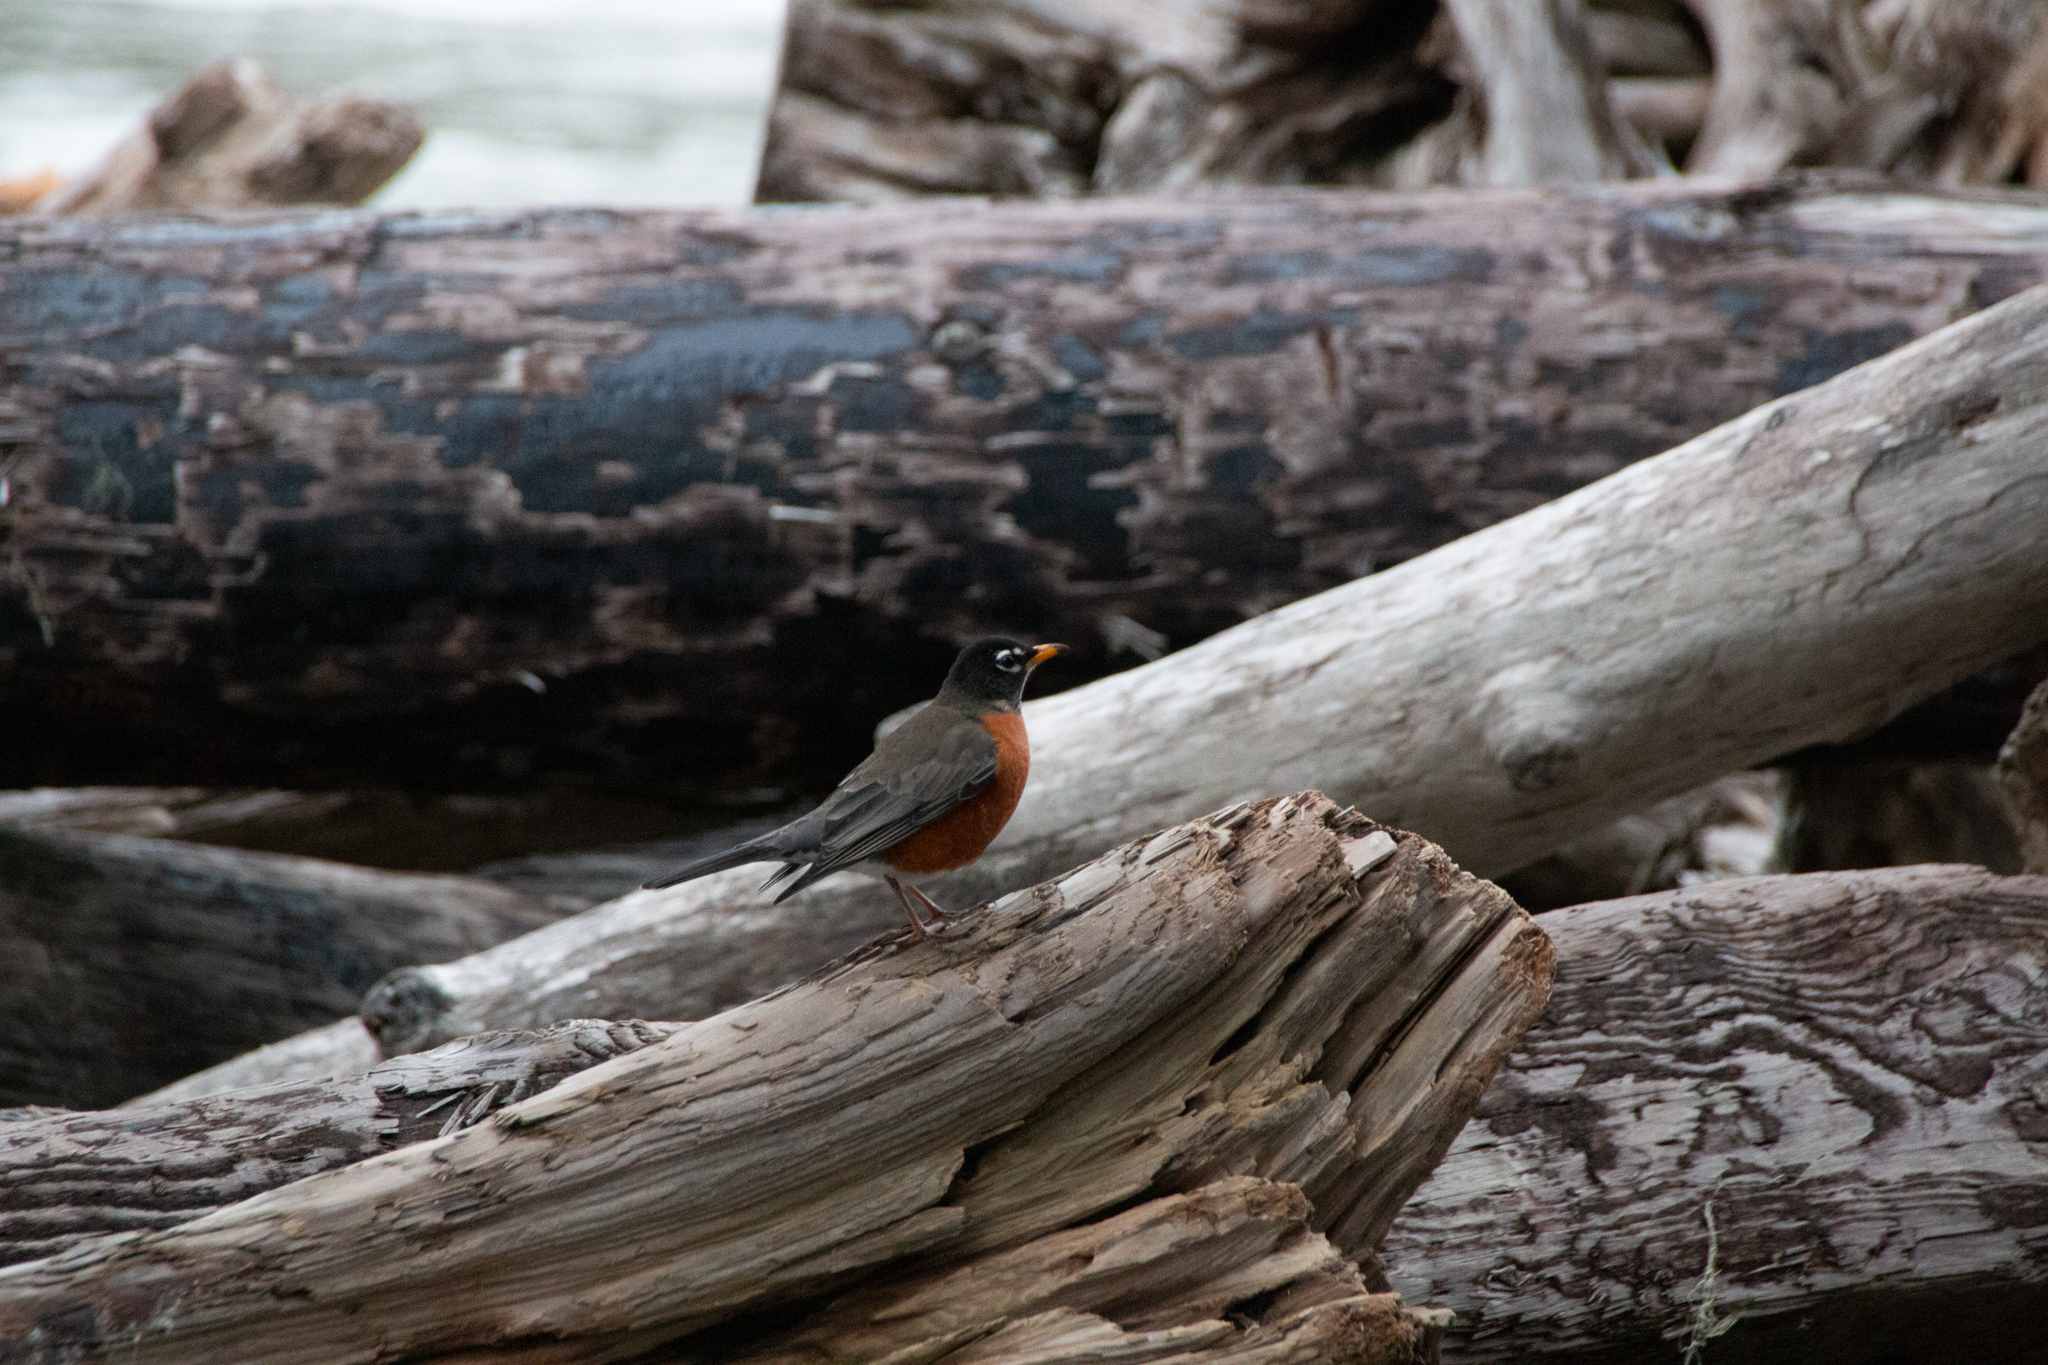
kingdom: Animalia
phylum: Chordata
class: Aves
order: Passeriformes
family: Turdidae
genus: Turdus
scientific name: Turdus migratorius
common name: American robin
